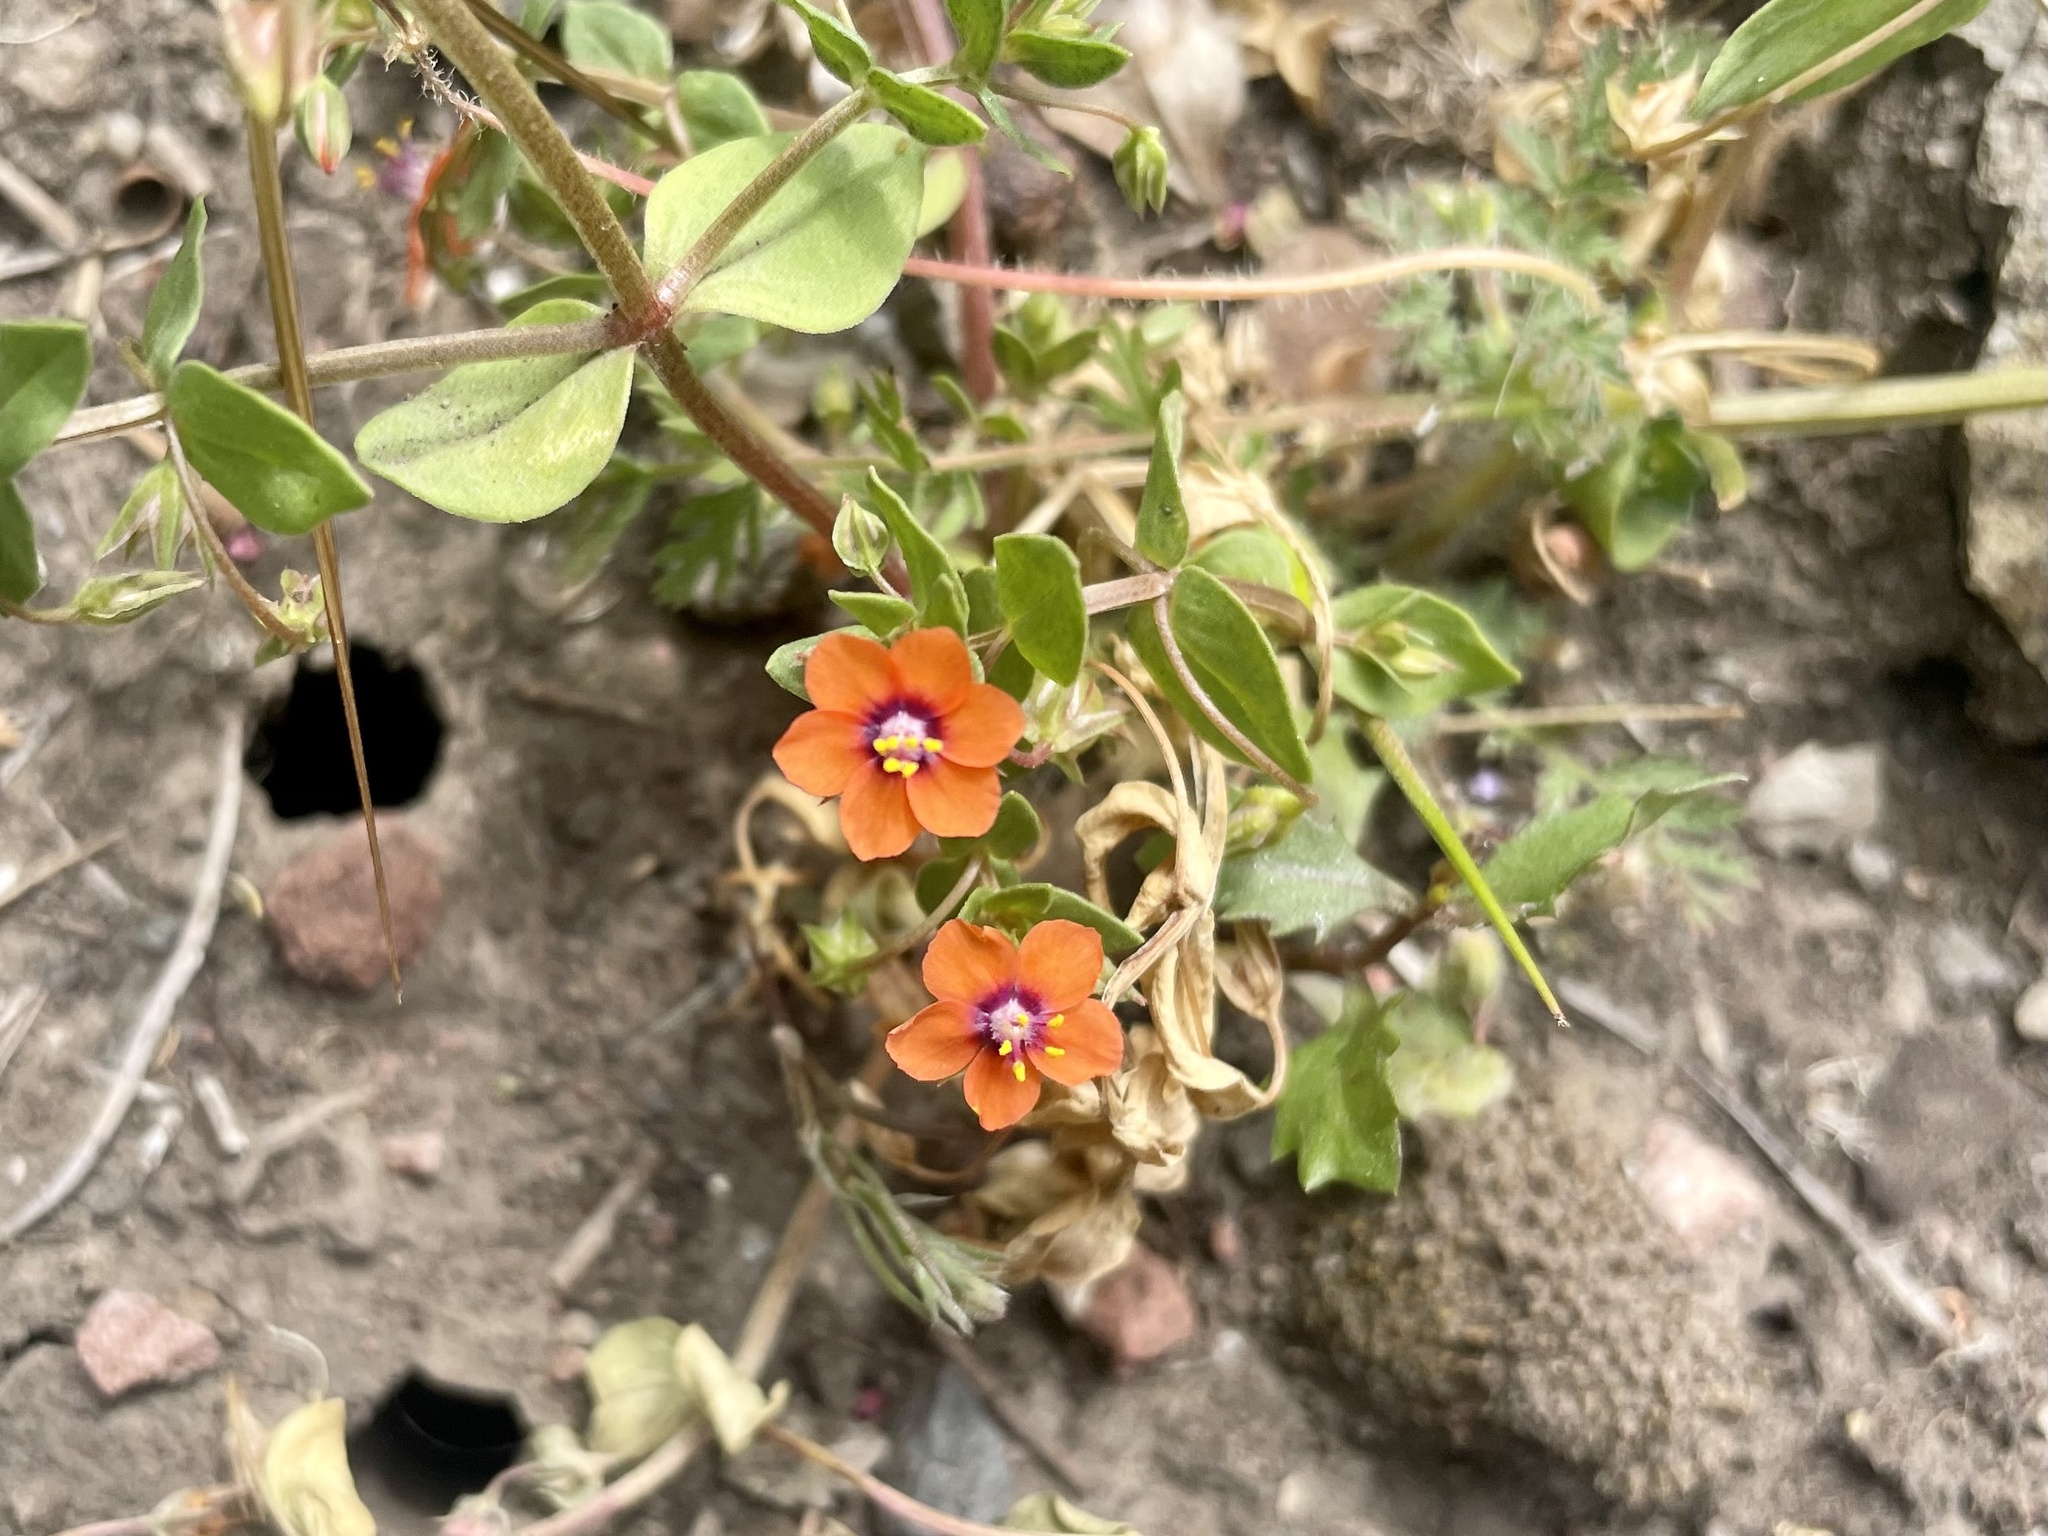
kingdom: Plantae
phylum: Tracheophyta
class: Magnoliopsida
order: Ericales
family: Primulaceae
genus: Lysimachia
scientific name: Lysimachia arvensis
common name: Scarlet pimpernel
